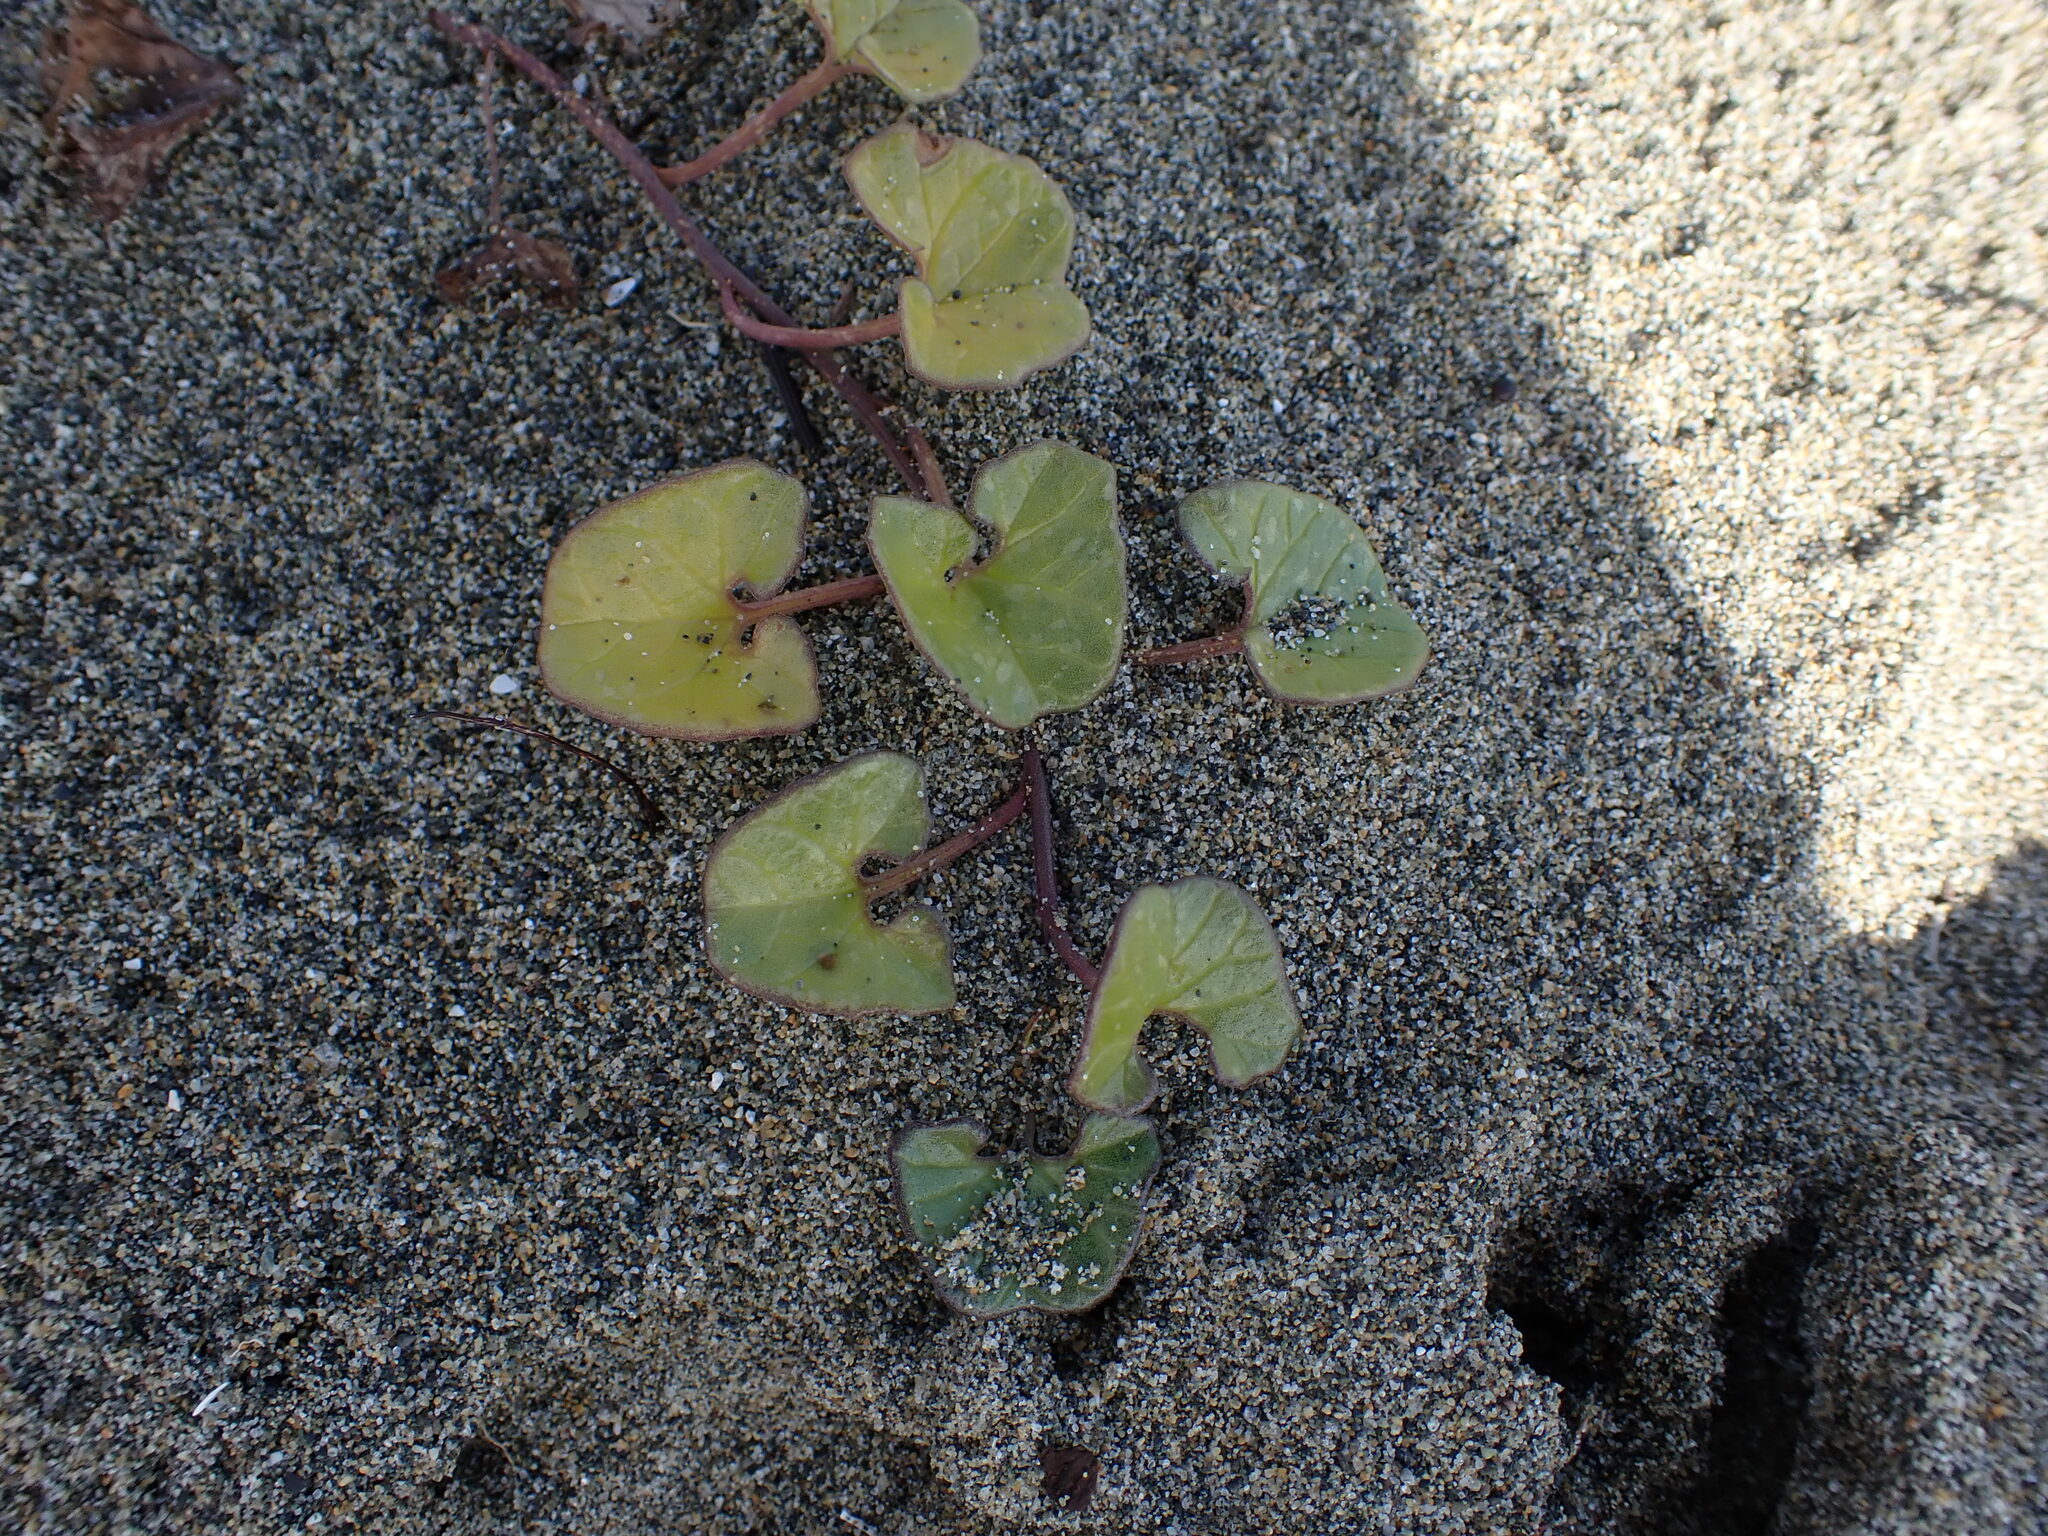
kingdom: Plantae
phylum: Tracheophyta
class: Magnoliopsida
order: Solanales
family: Convolvulaceae
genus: Calystegia
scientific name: Calystegia soldanella
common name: Sea bindweed
